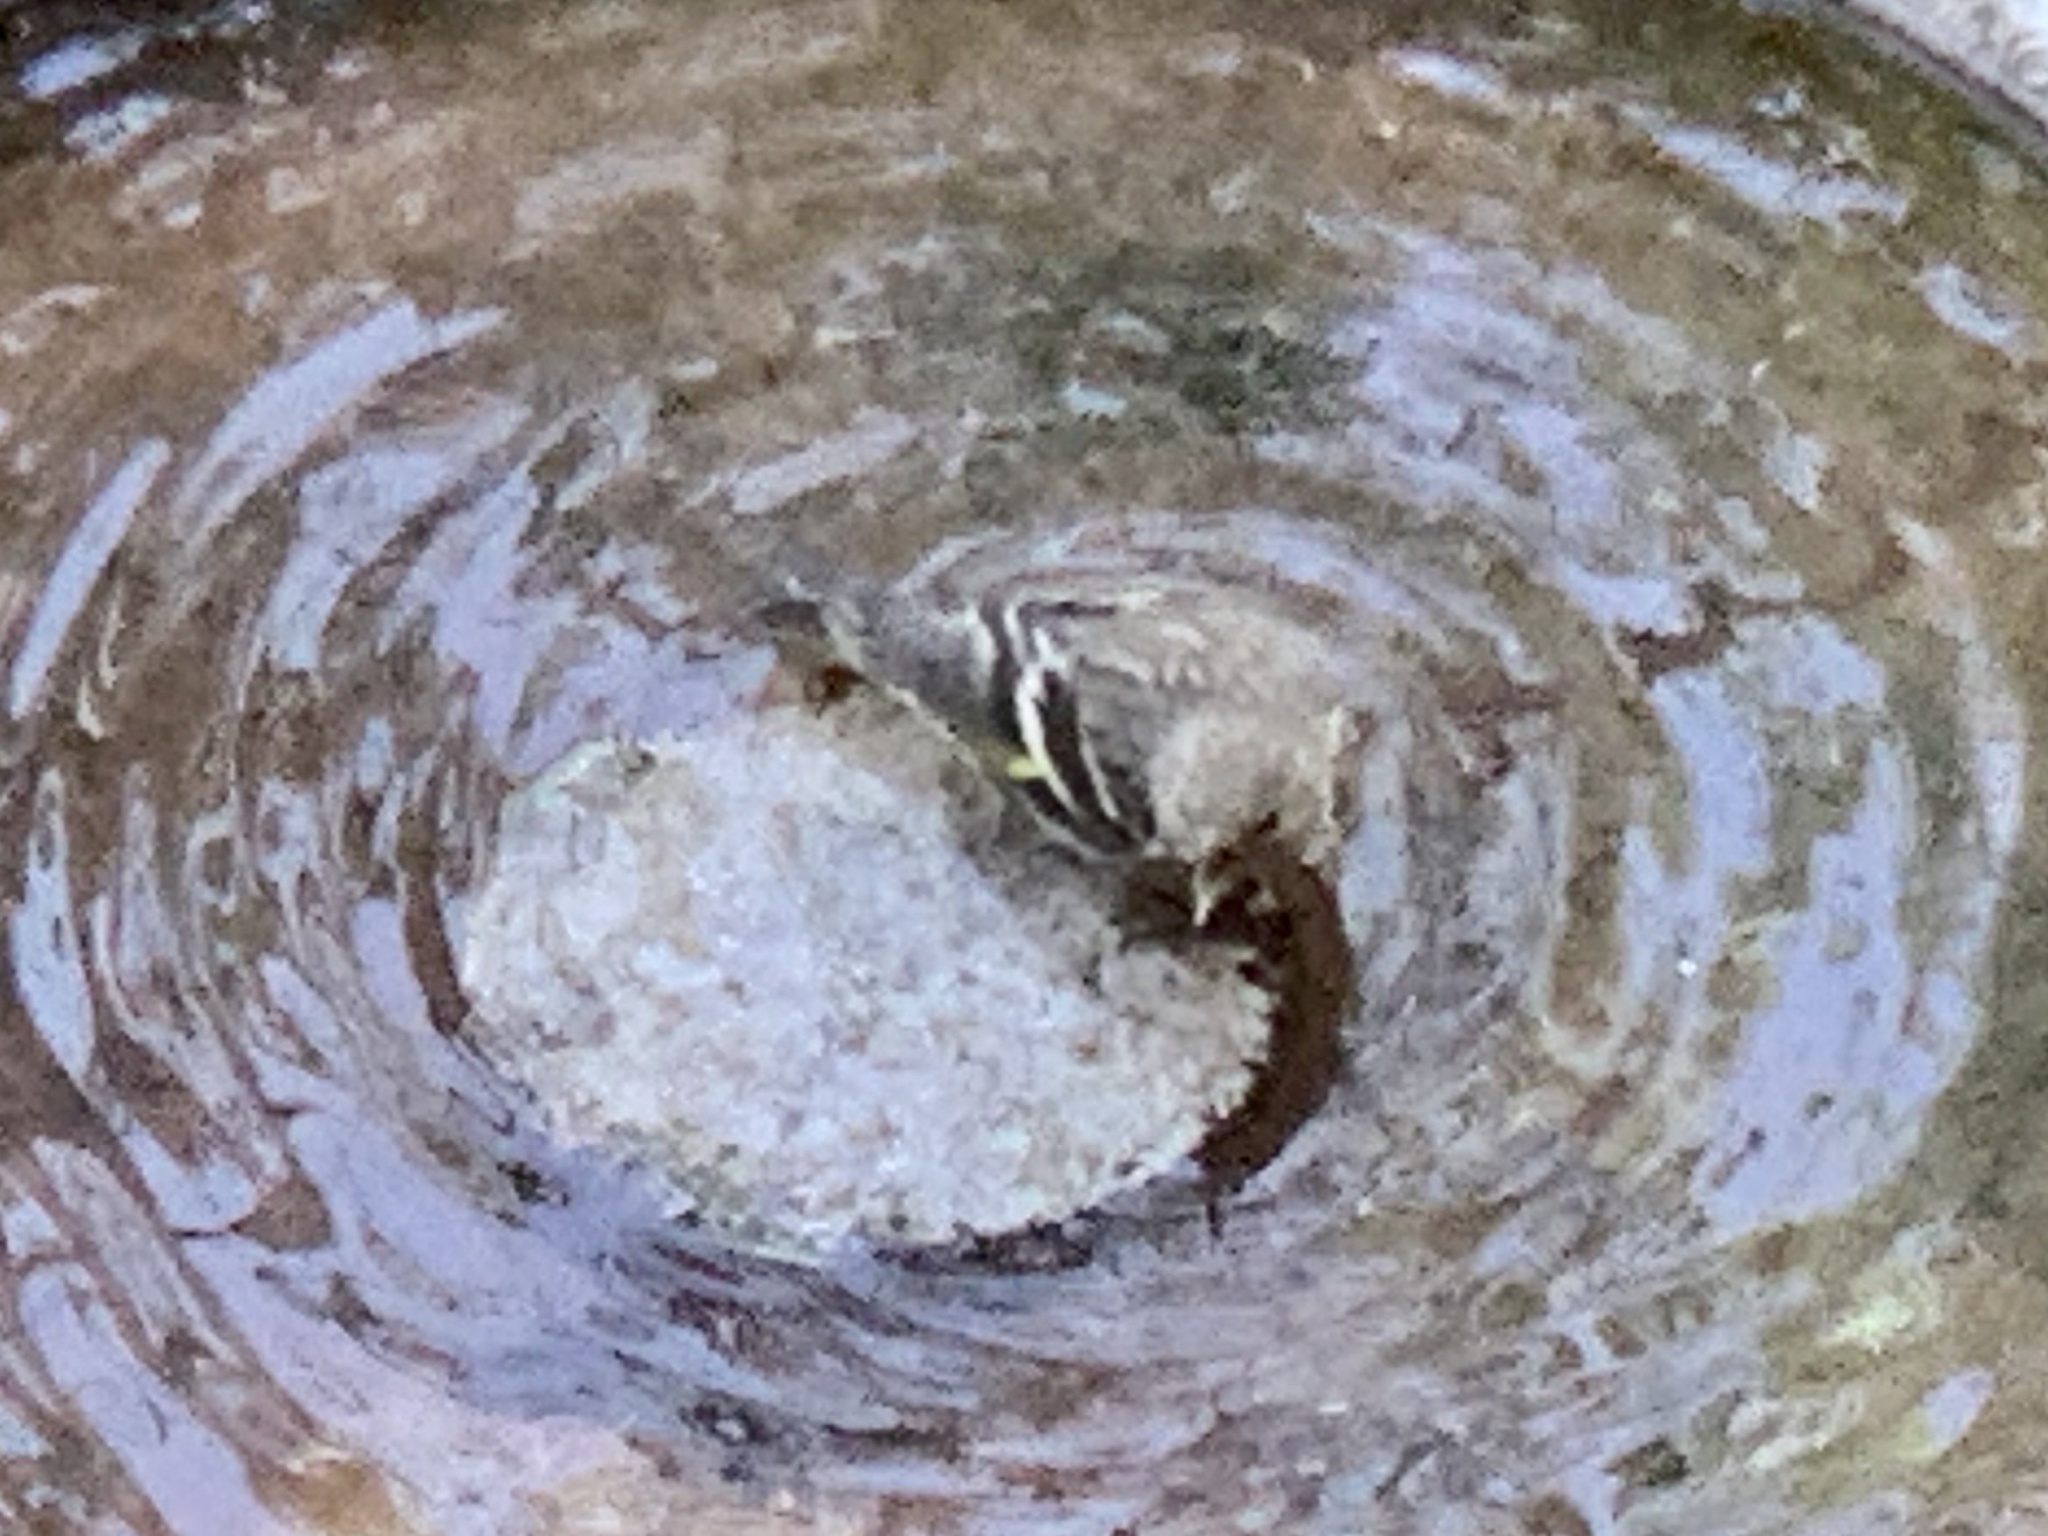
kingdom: Animalia
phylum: Chordata
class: Aves
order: Passeriformes
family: Fringillidae
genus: Spinus
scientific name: Spinus pinus
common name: Pine siskin
